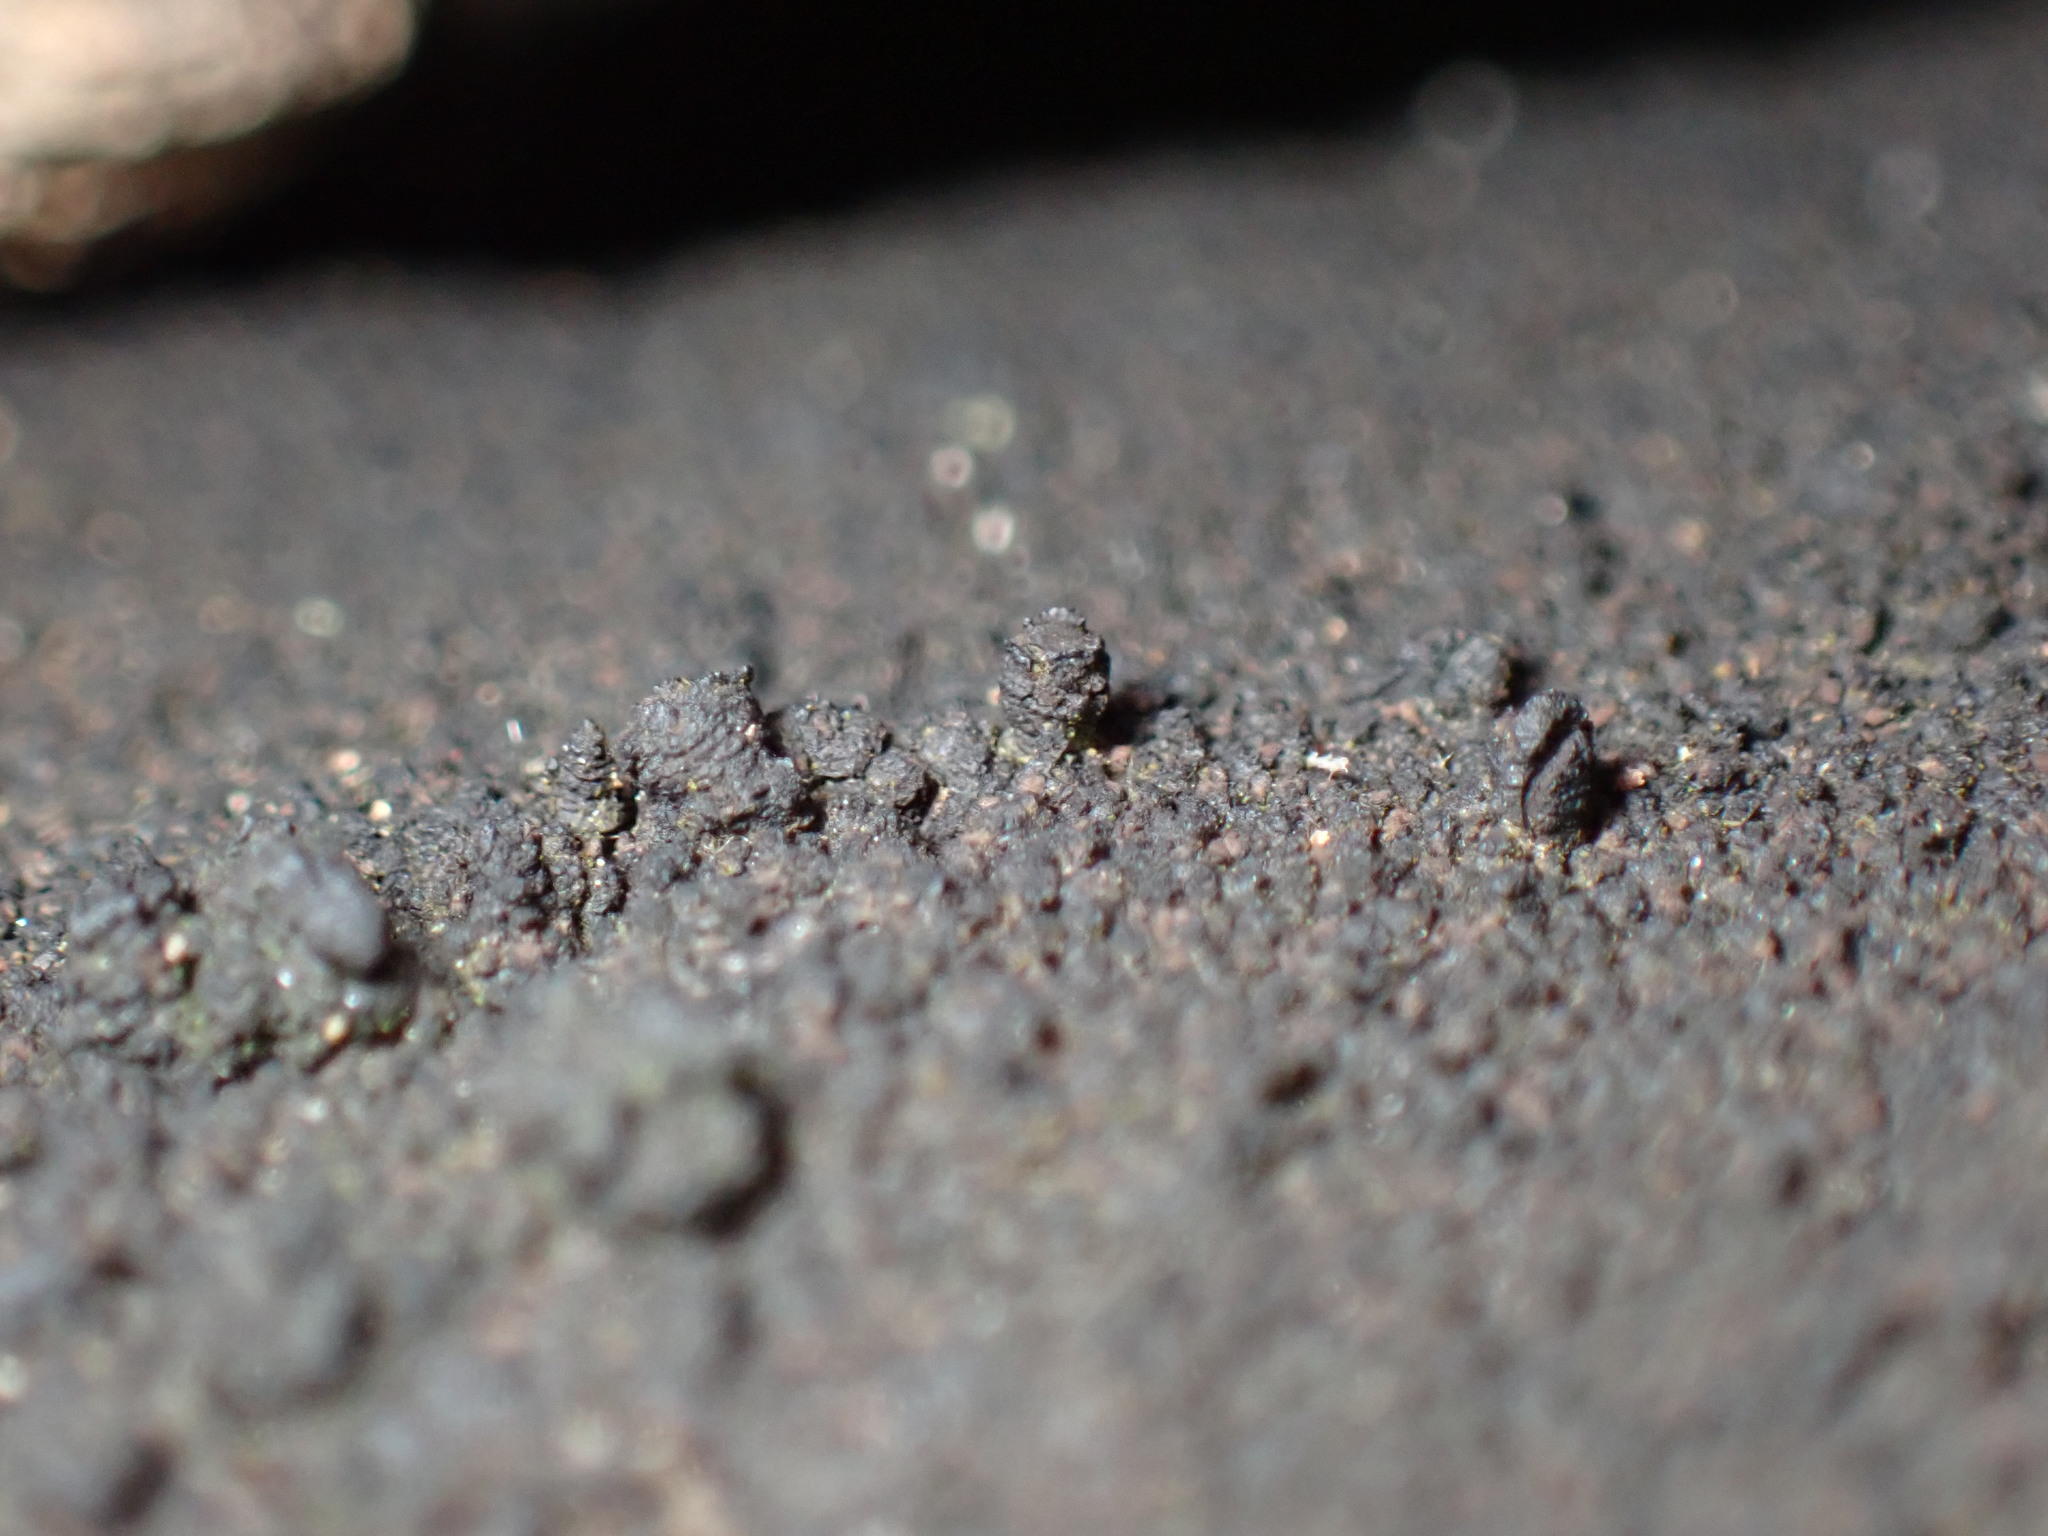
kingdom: Fungi
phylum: Ascomycota
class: Sordariomycetes
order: Xylariales
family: Diatrypaceae
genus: Eutypa
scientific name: Eutypa
